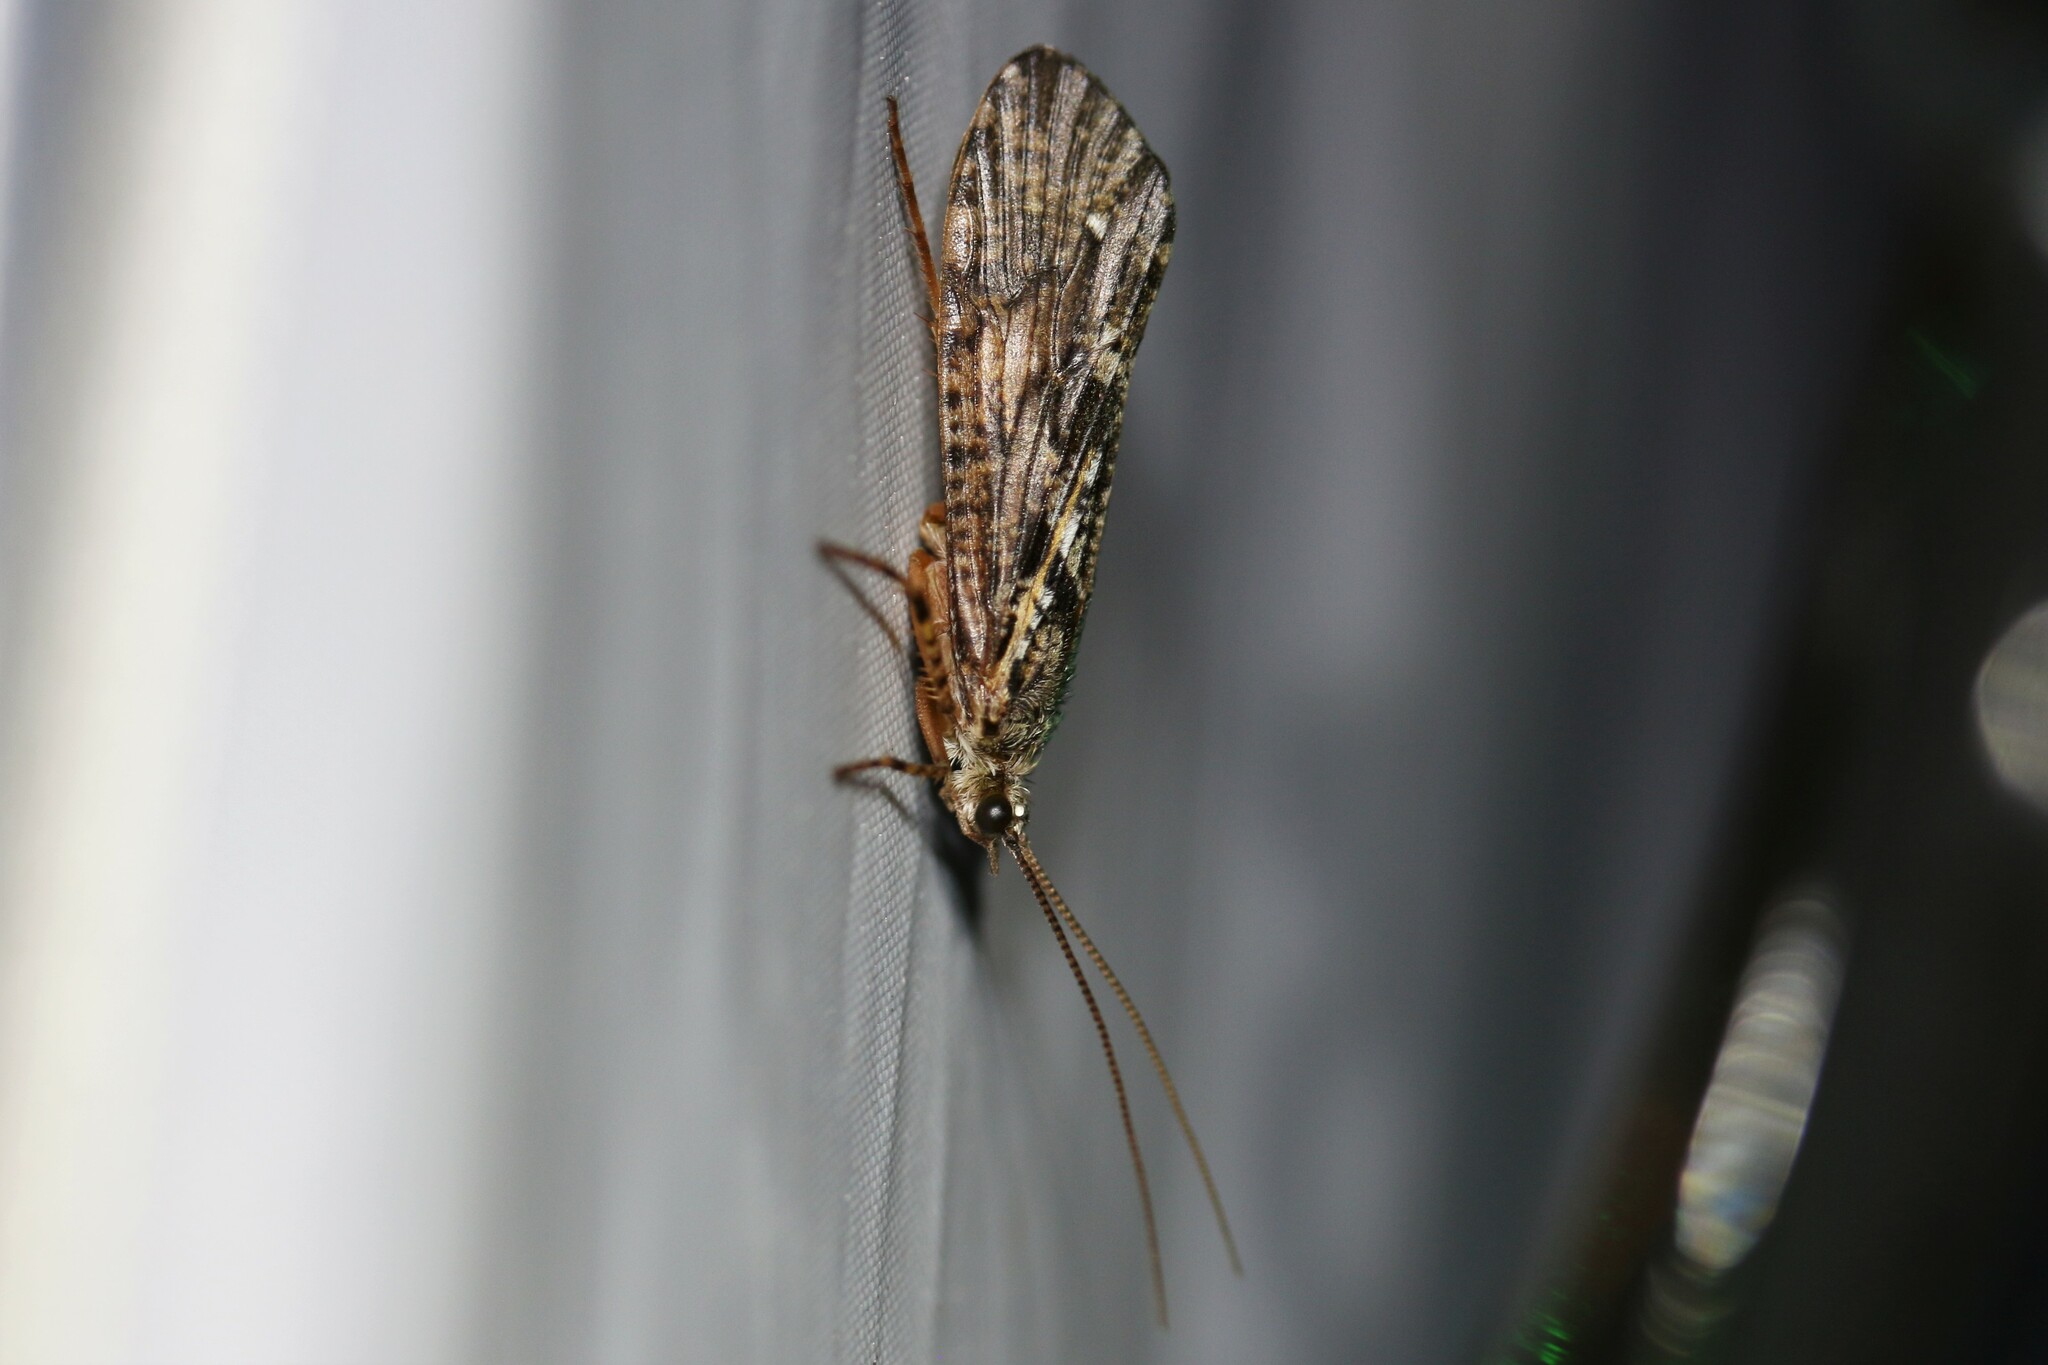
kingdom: Animalia
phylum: Arthropoda
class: Insecta
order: Trichoptera
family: Phryganeidae
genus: Agrypnia
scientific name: Agrypnia
